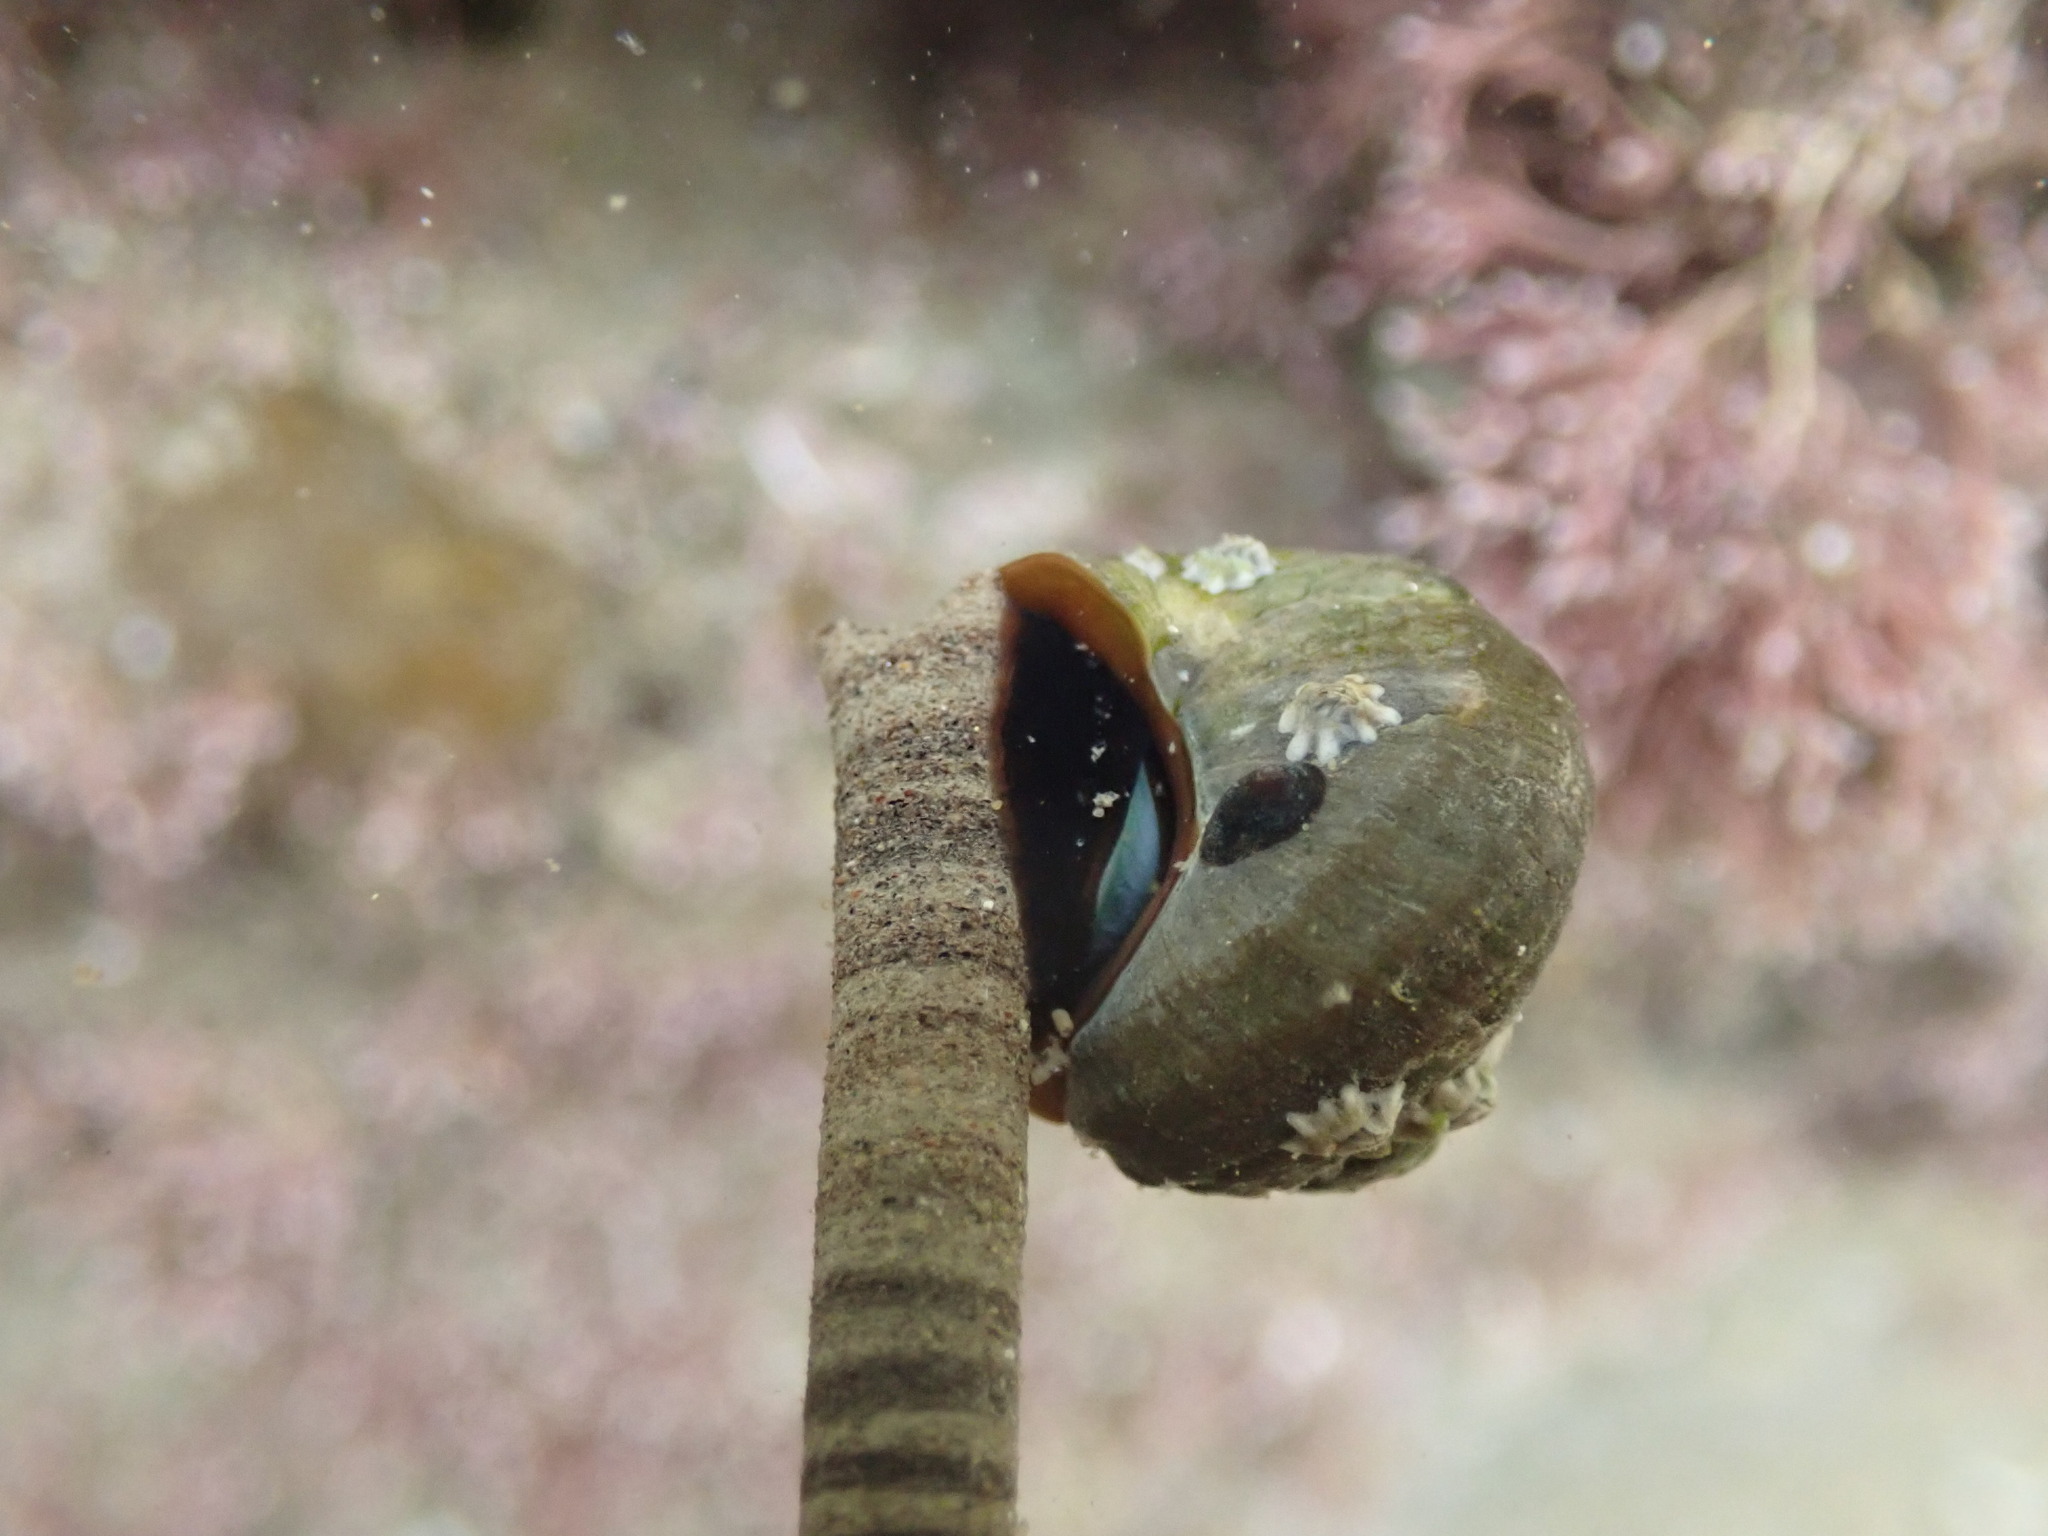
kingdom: Animalia
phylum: Mollusca
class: Gastropoda
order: Trochida
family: Turbinidae
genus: Lunella
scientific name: Lunella smaragda
